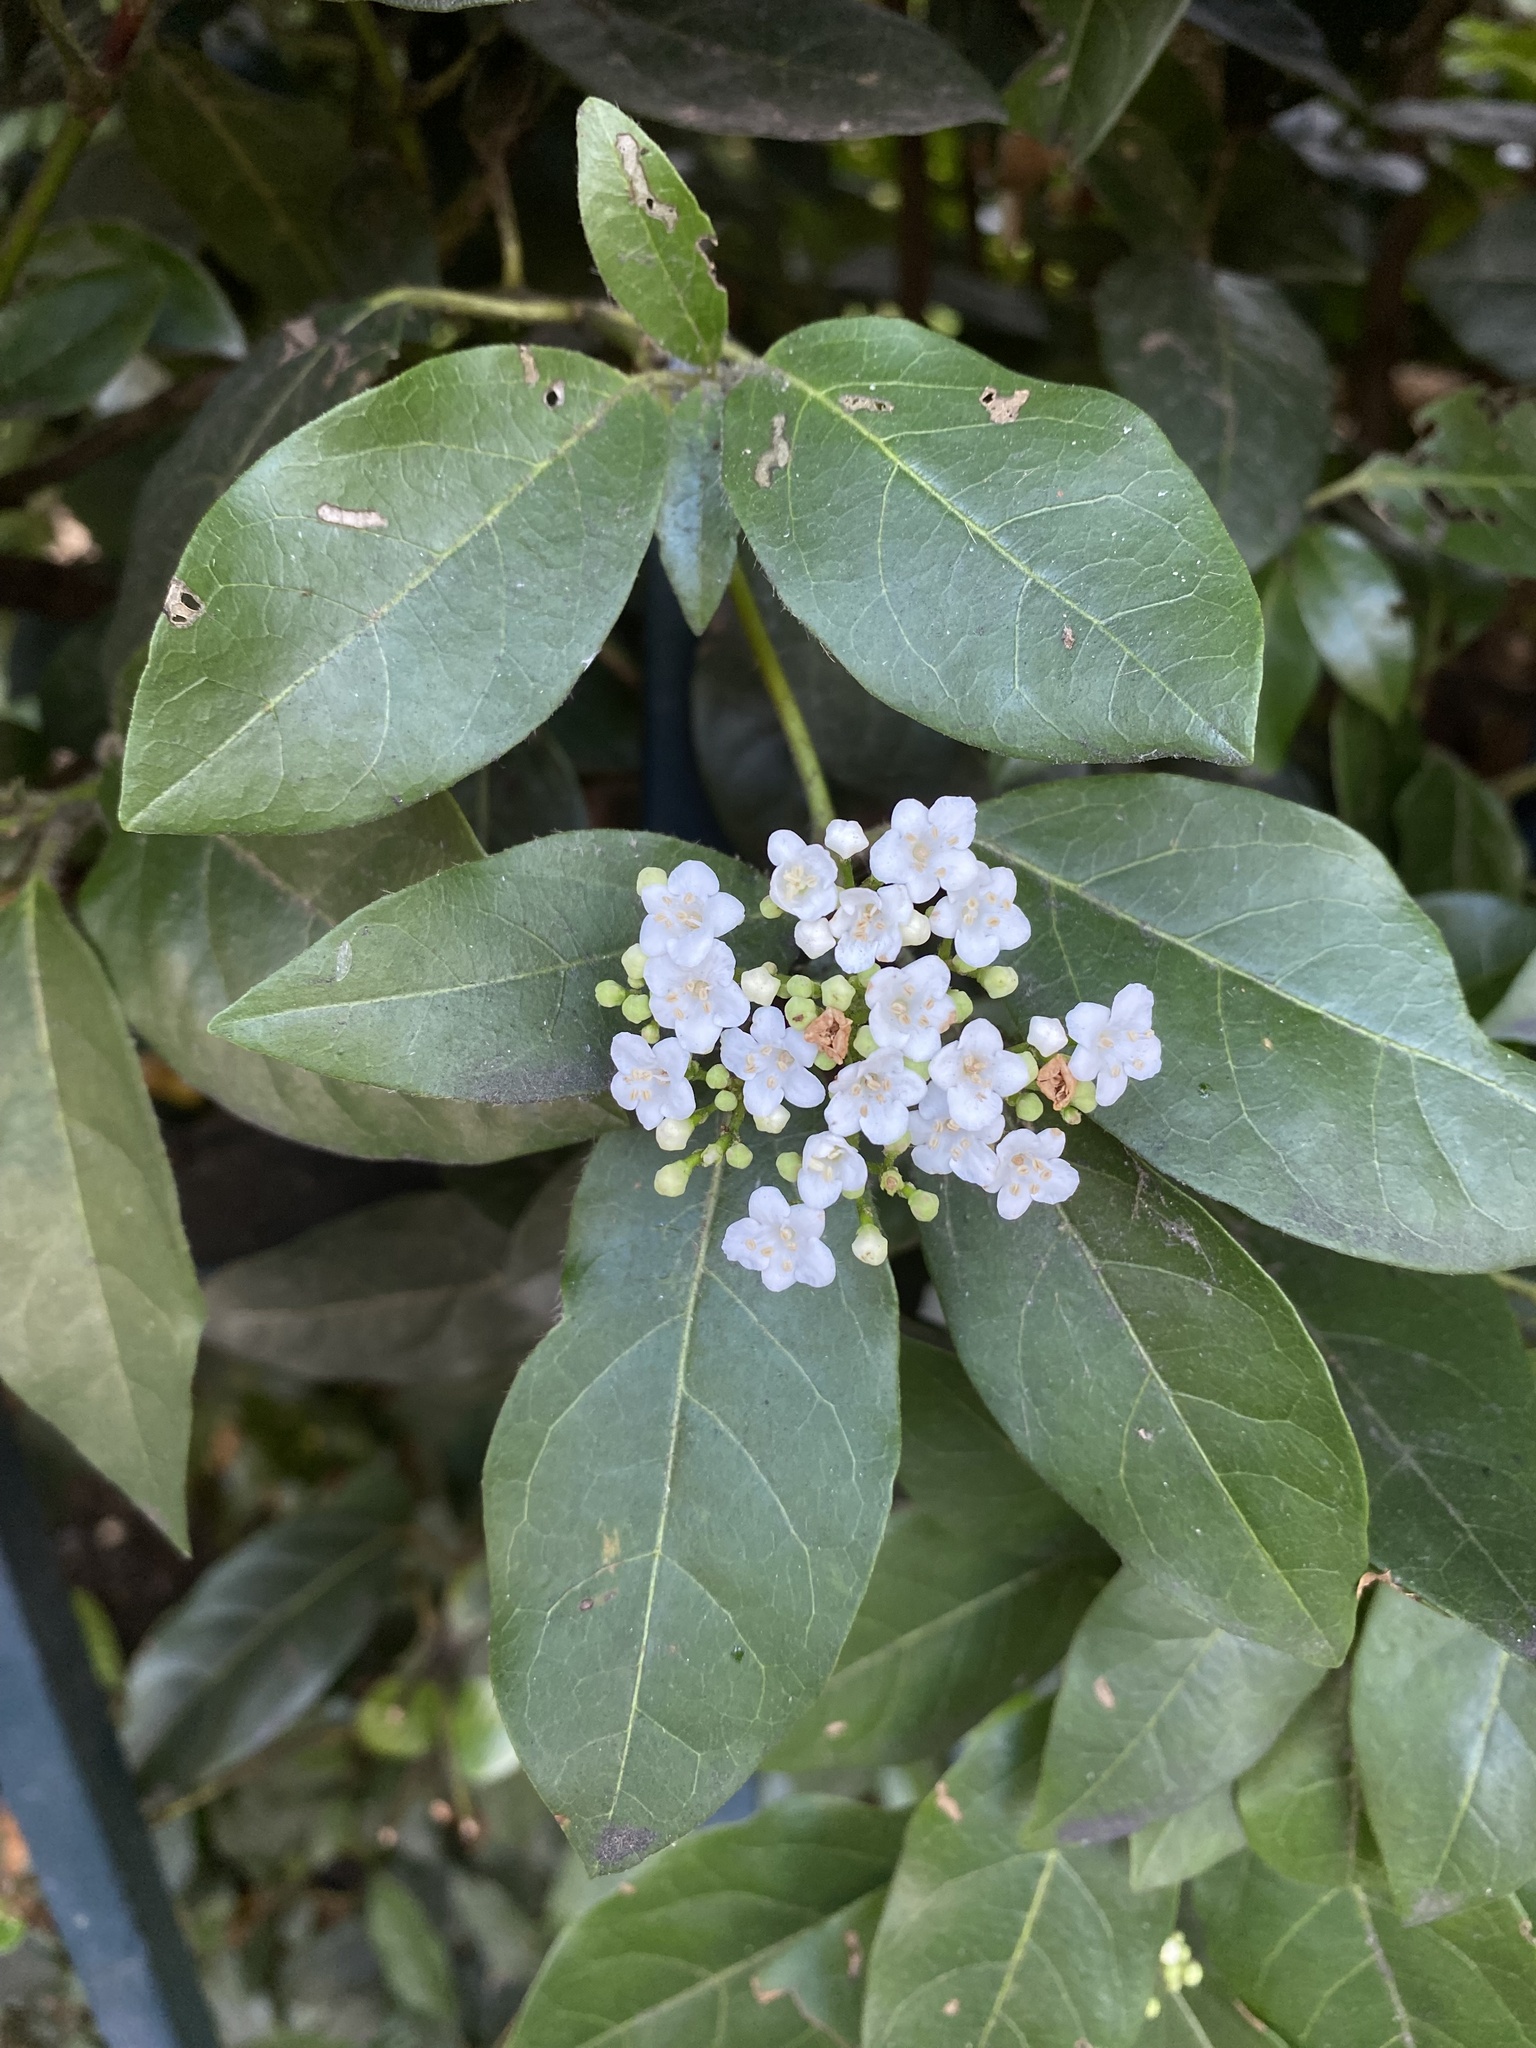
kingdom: Plantae
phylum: Tracheophyta
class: Magnoliopsida
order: Dipsacales
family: Viburnaceae
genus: Viburnum
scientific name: Viburnum tinus
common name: Laurustinus
